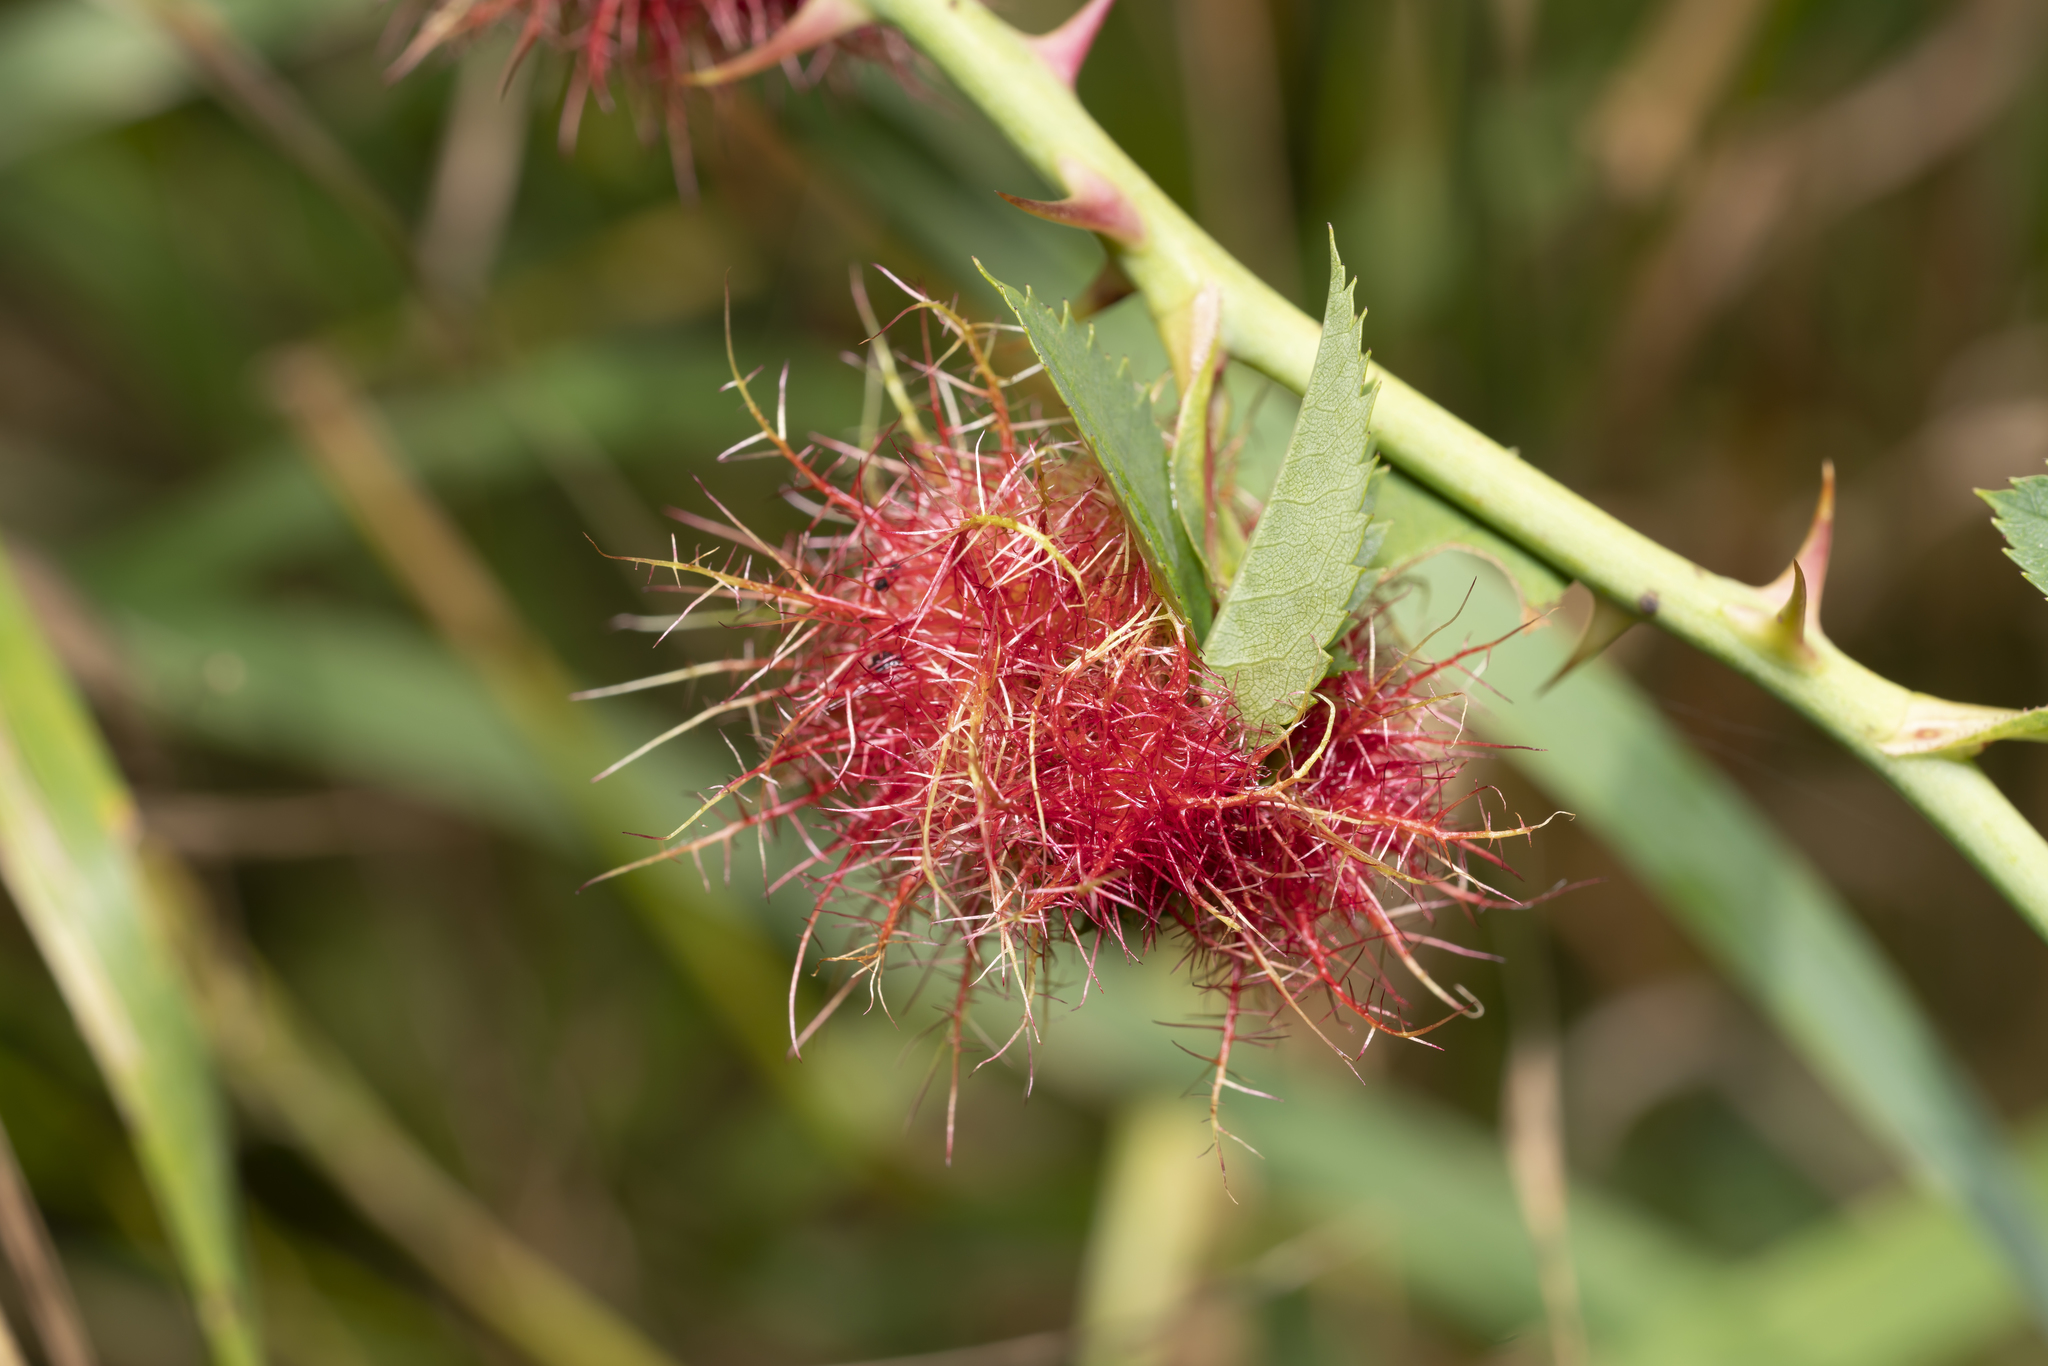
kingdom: Animalia
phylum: Arthropoda
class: Insecta
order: Hymenoptera
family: Cynipidae
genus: Diplolepis
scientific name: Diplolepis rosae
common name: Bedeguar gall
